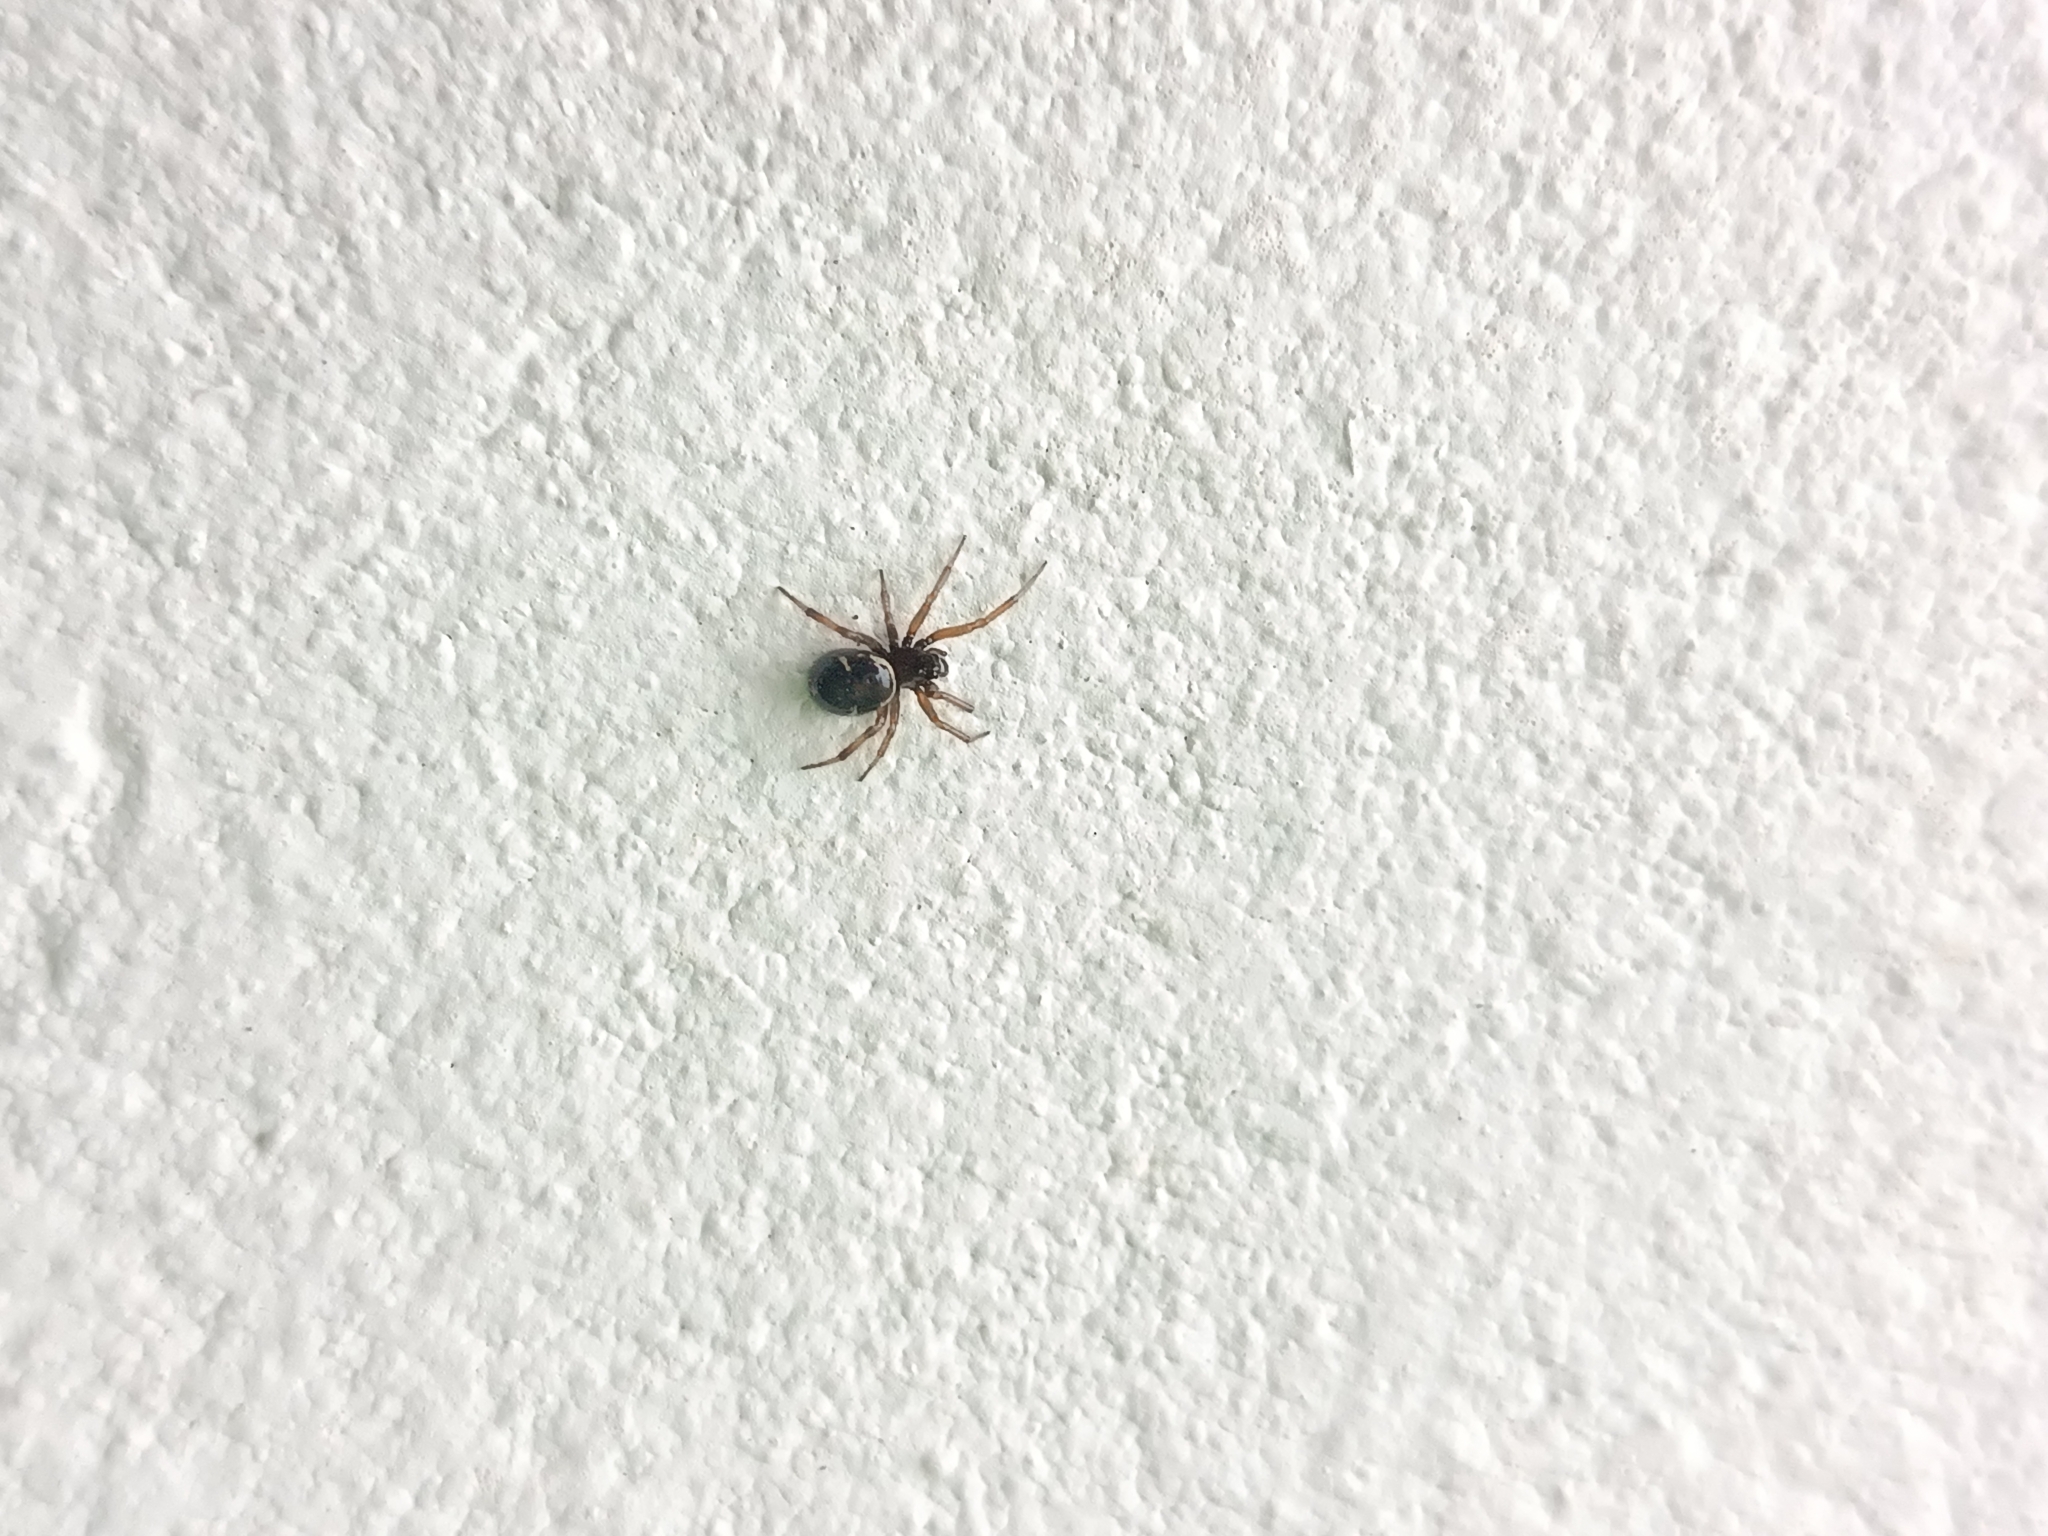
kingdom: Animalia
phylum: Arthropoda
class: Arachnida
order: Araneae
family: Theridiidae
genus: Steatoda
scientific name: Steatoda ancorata
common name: Cobweb spiders
